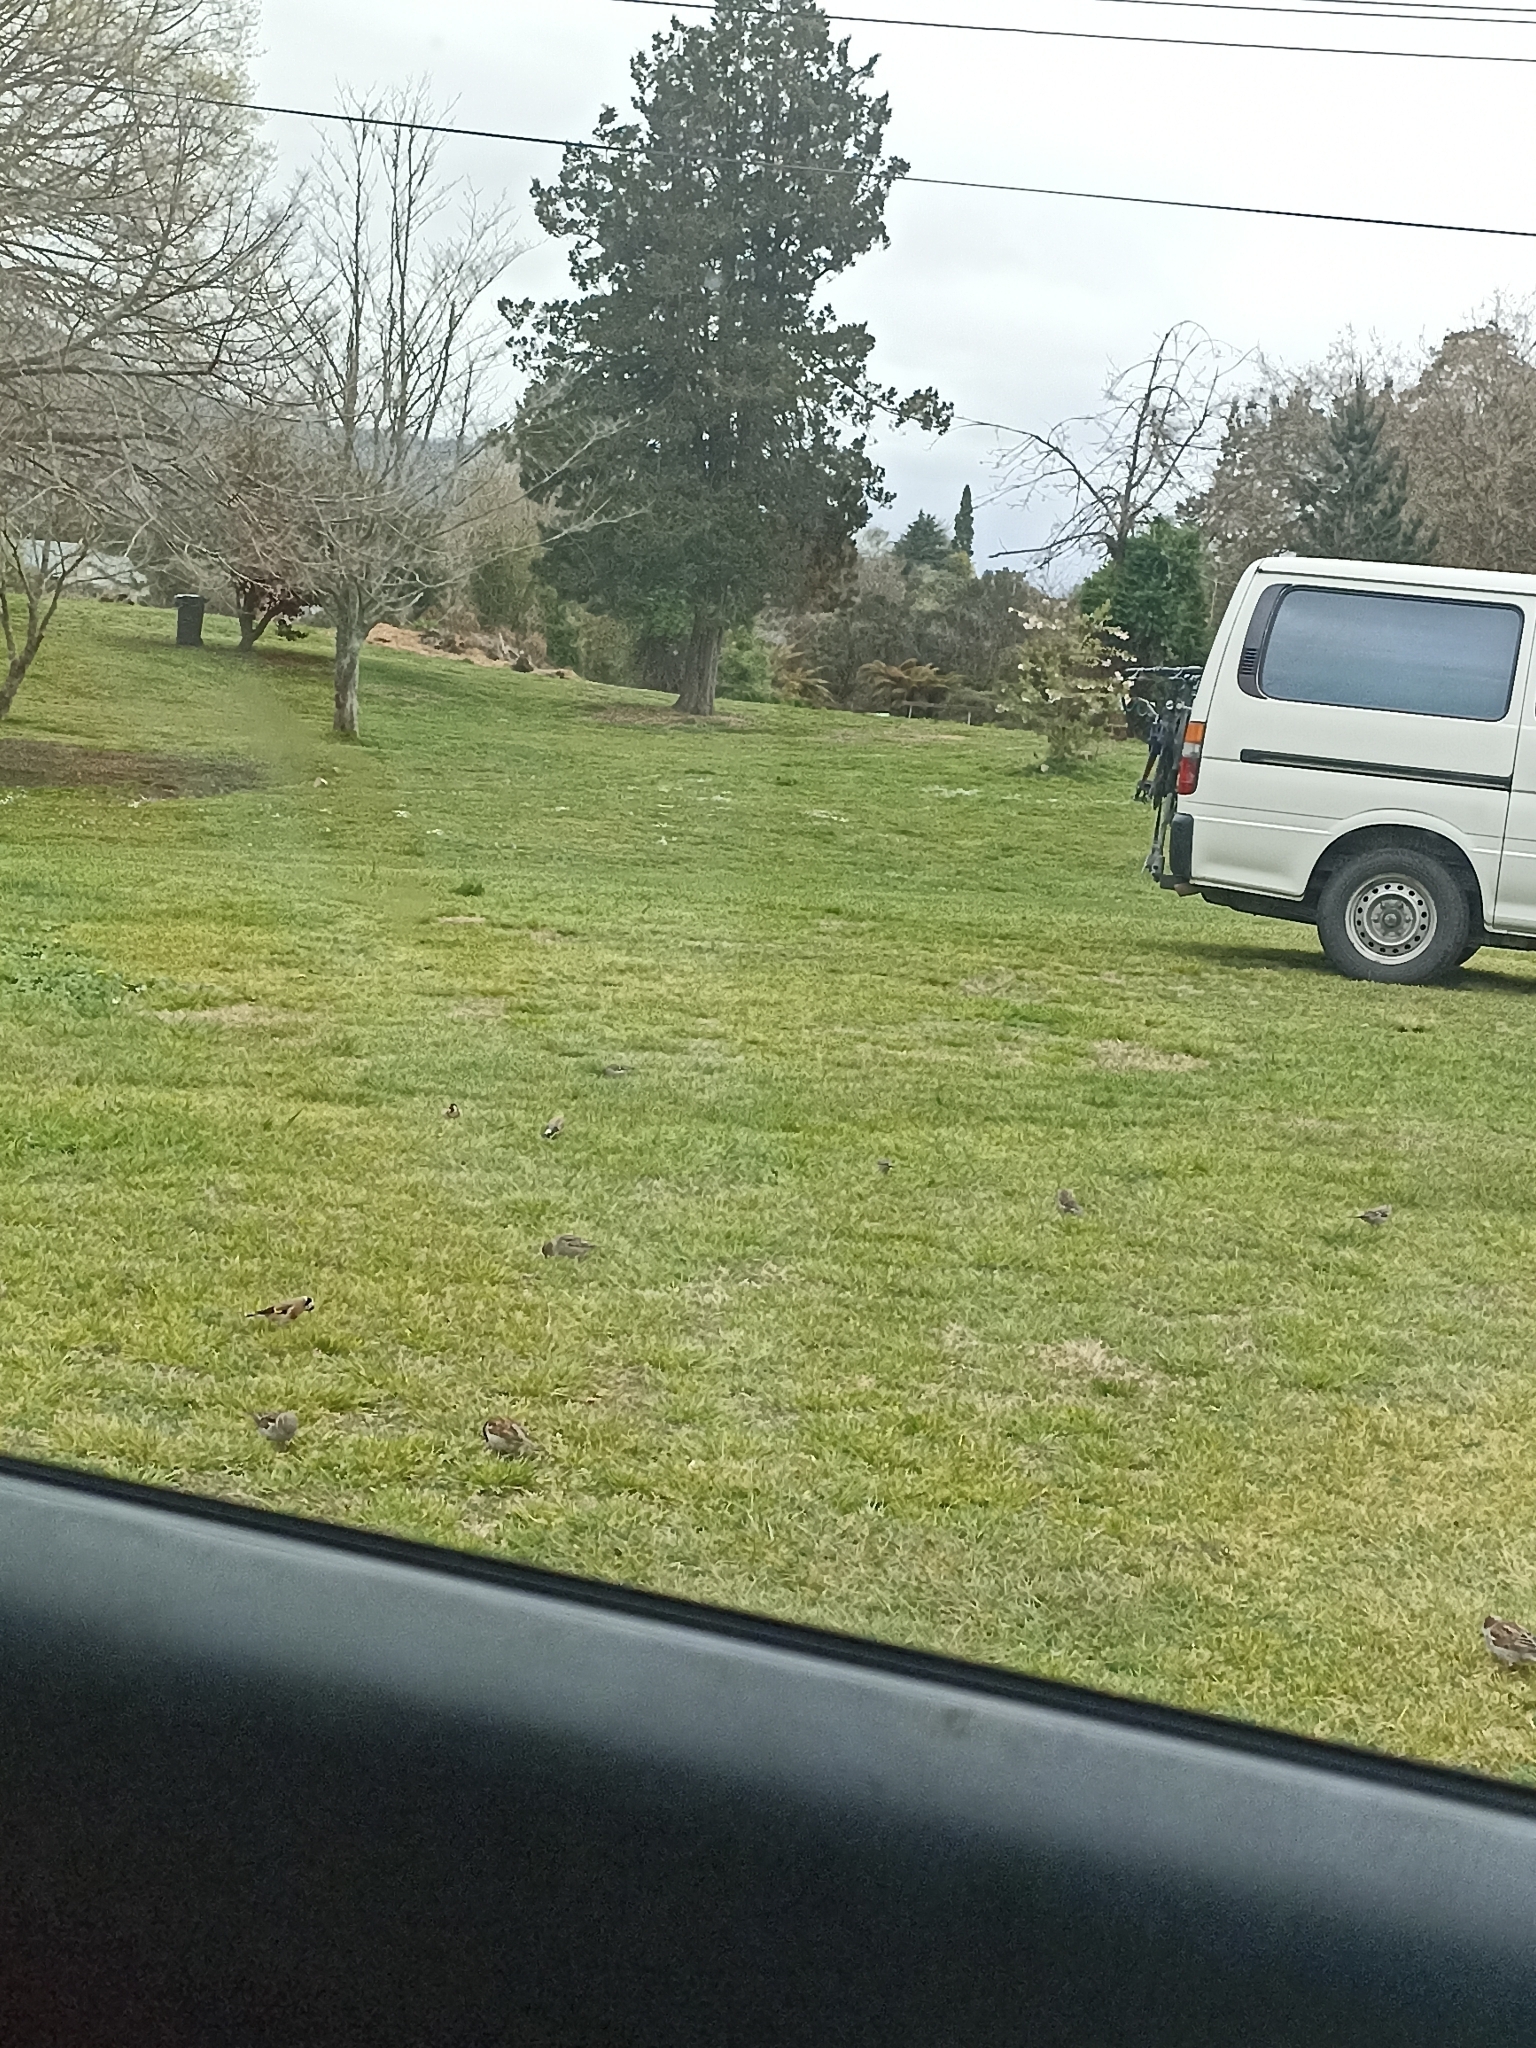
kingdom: Animalia
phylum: Chordata
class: Aves
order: Passeriformes
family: Fringillidae
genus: Carduelis
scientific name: Carduelis carduelis
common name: European goldfinch
